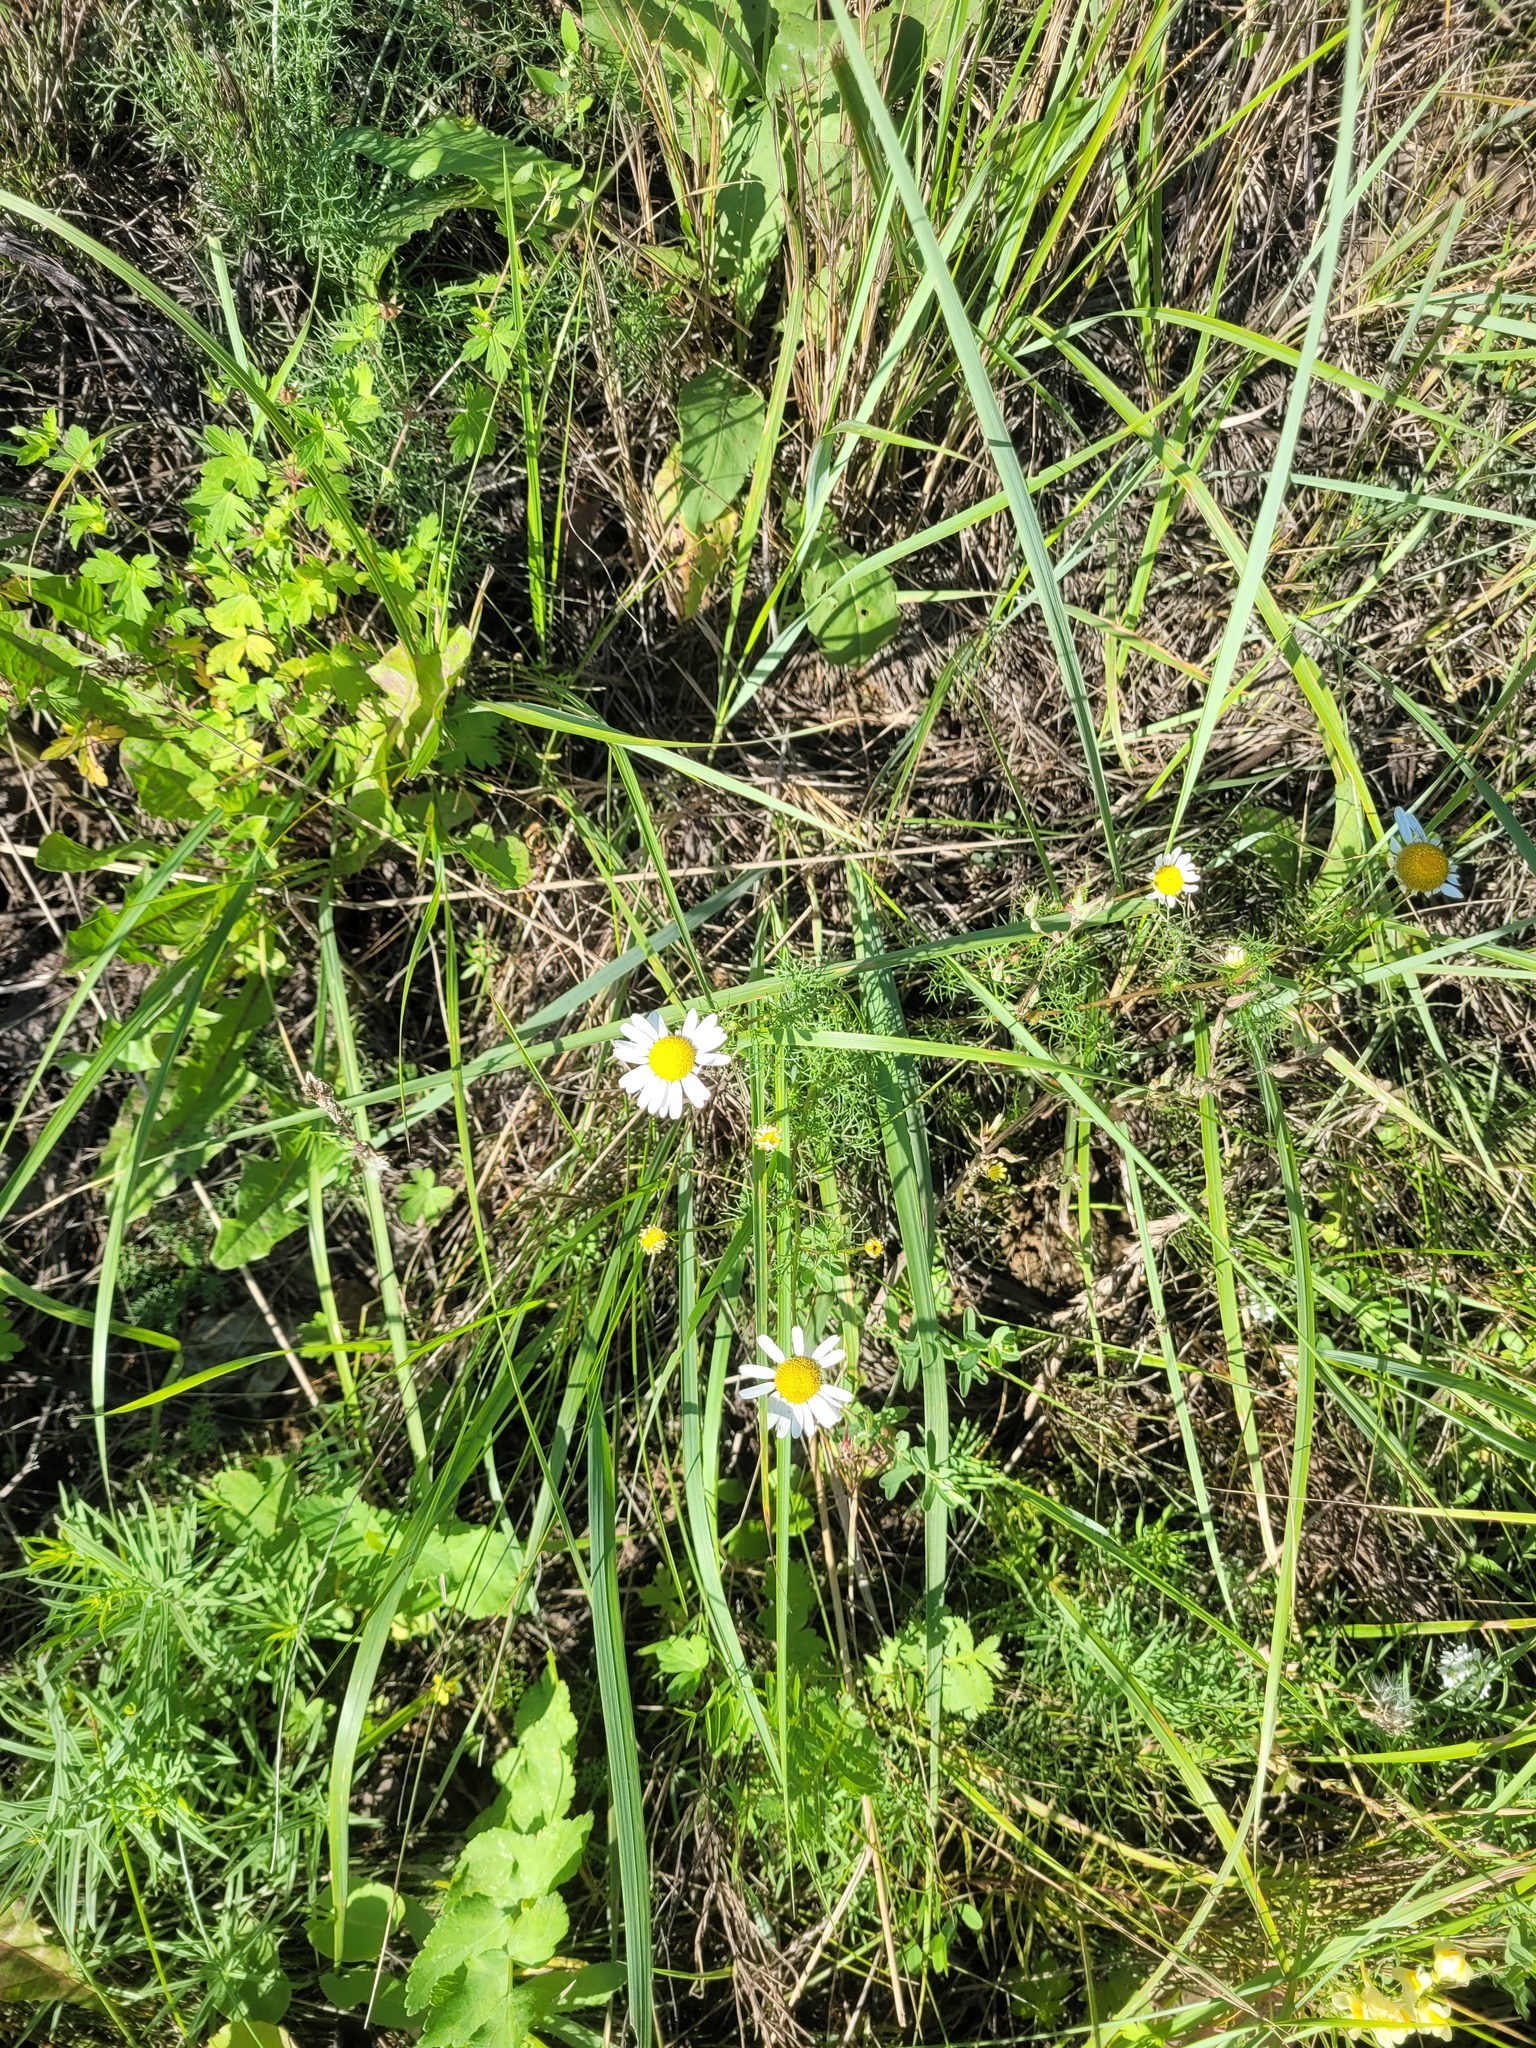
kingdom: Plantae
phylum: Tracheophyta
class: Magnoliopsida
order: Asterales
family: Asteraceae
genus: Tripleurospermum
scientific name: Tripleurospermum inodorum
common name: Scentless mayweed
